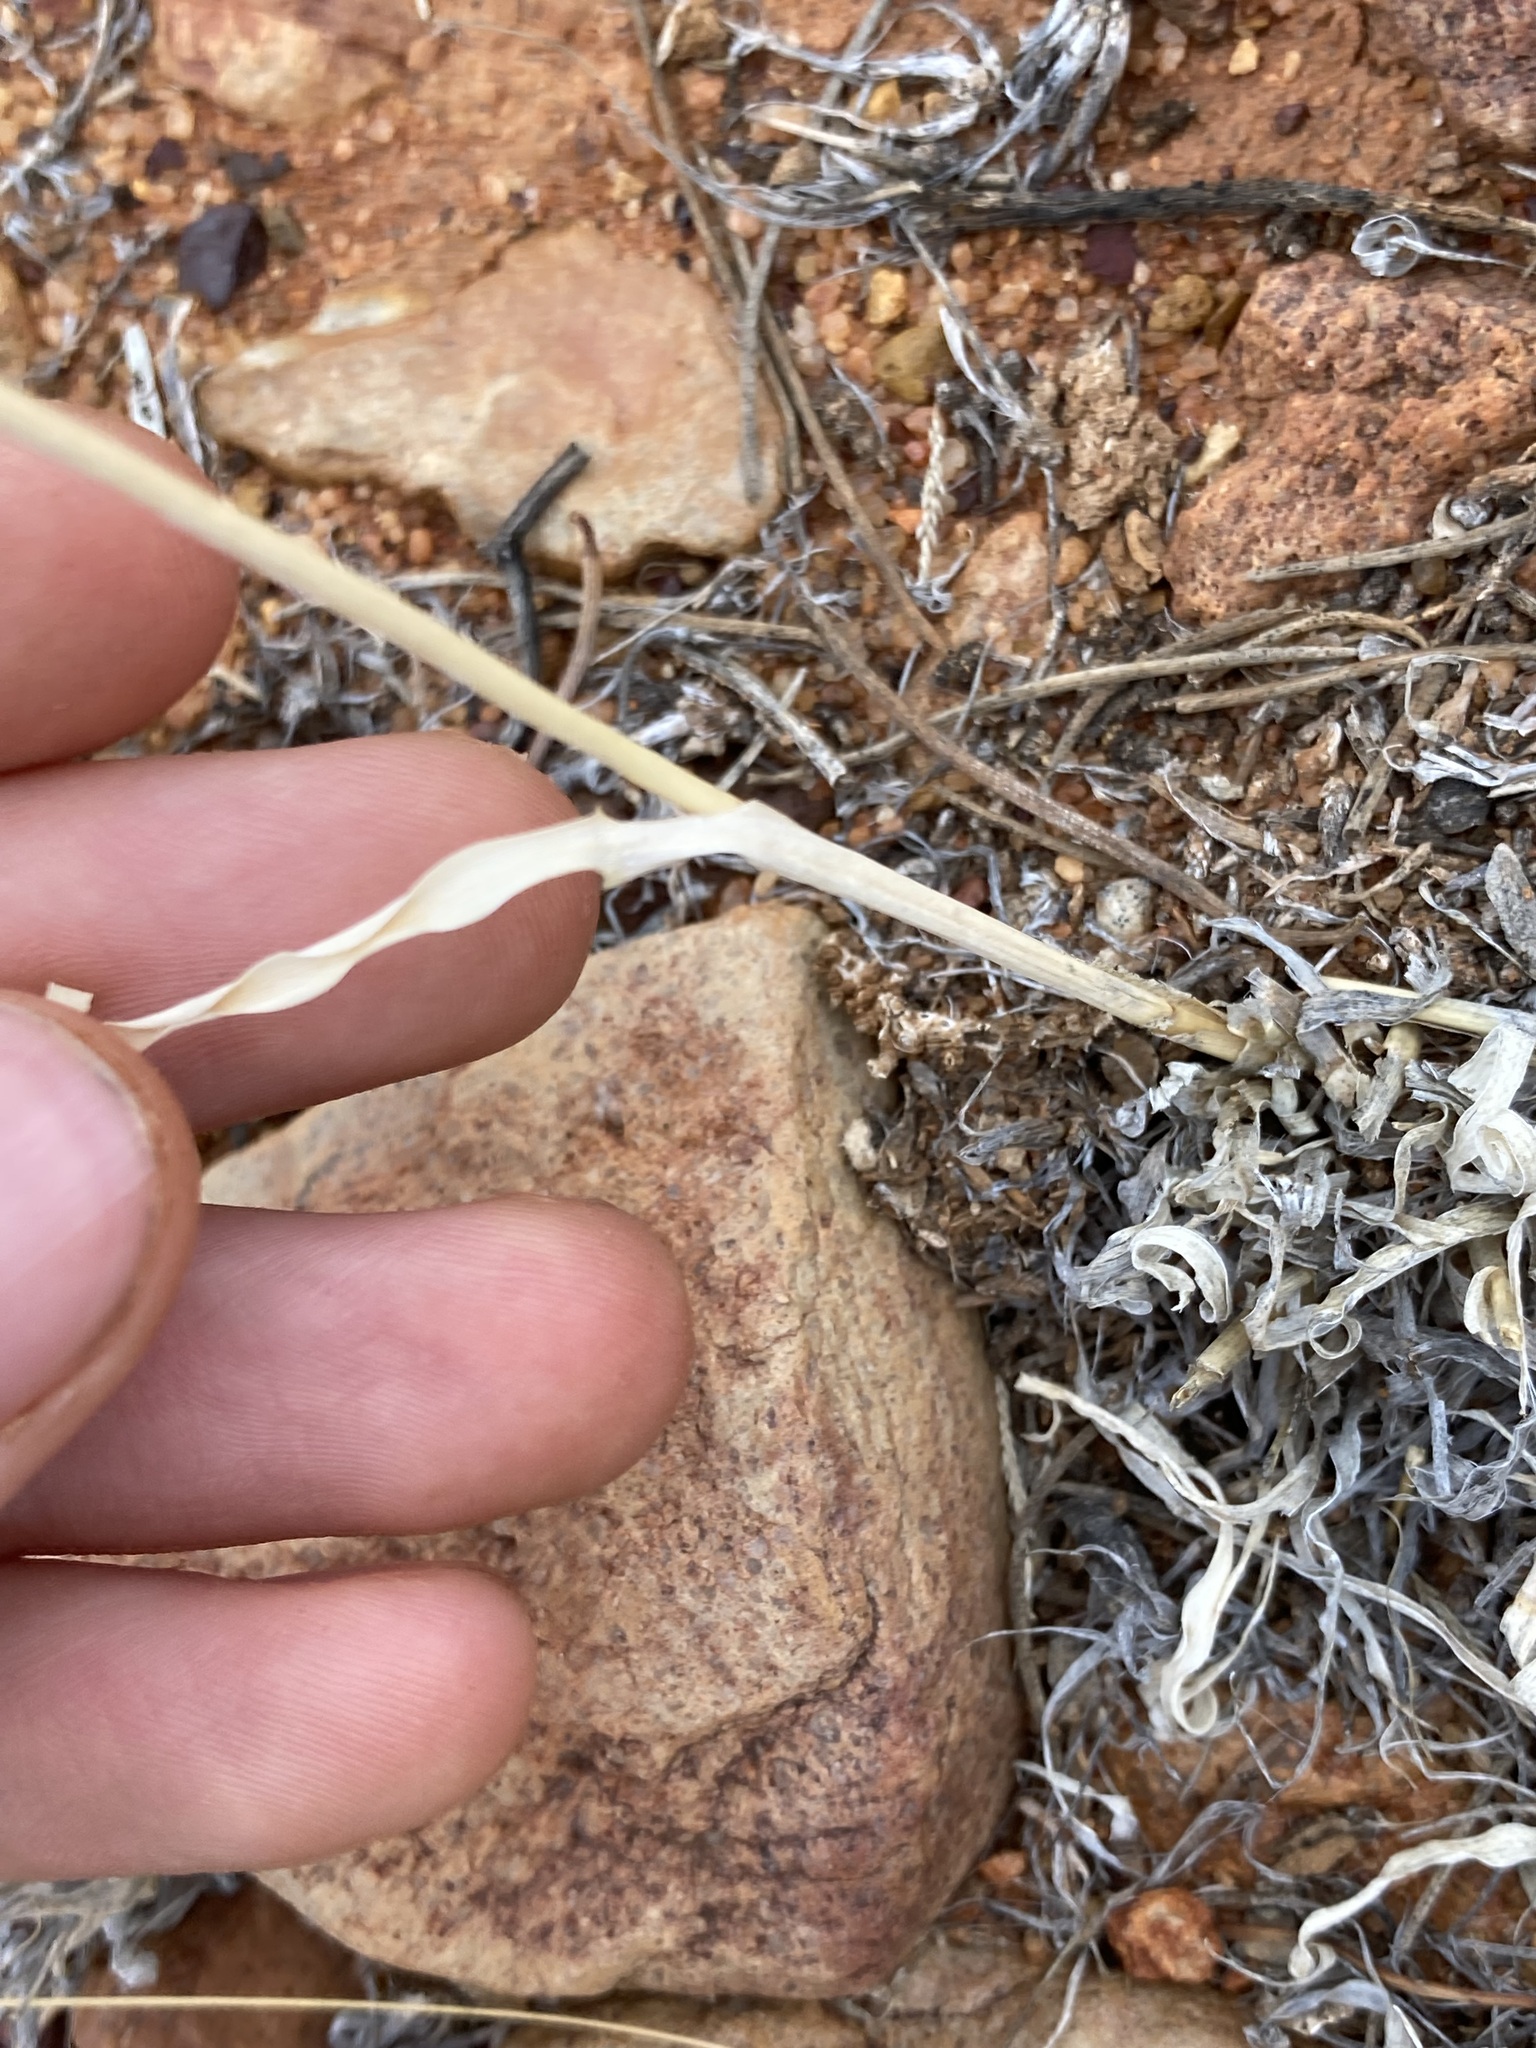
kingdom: Plantae
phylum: Tracheophyta
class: Liliopsida
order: Poales
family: Poaceae
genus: Sporobolus
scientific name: Sporobolus actinocladus
